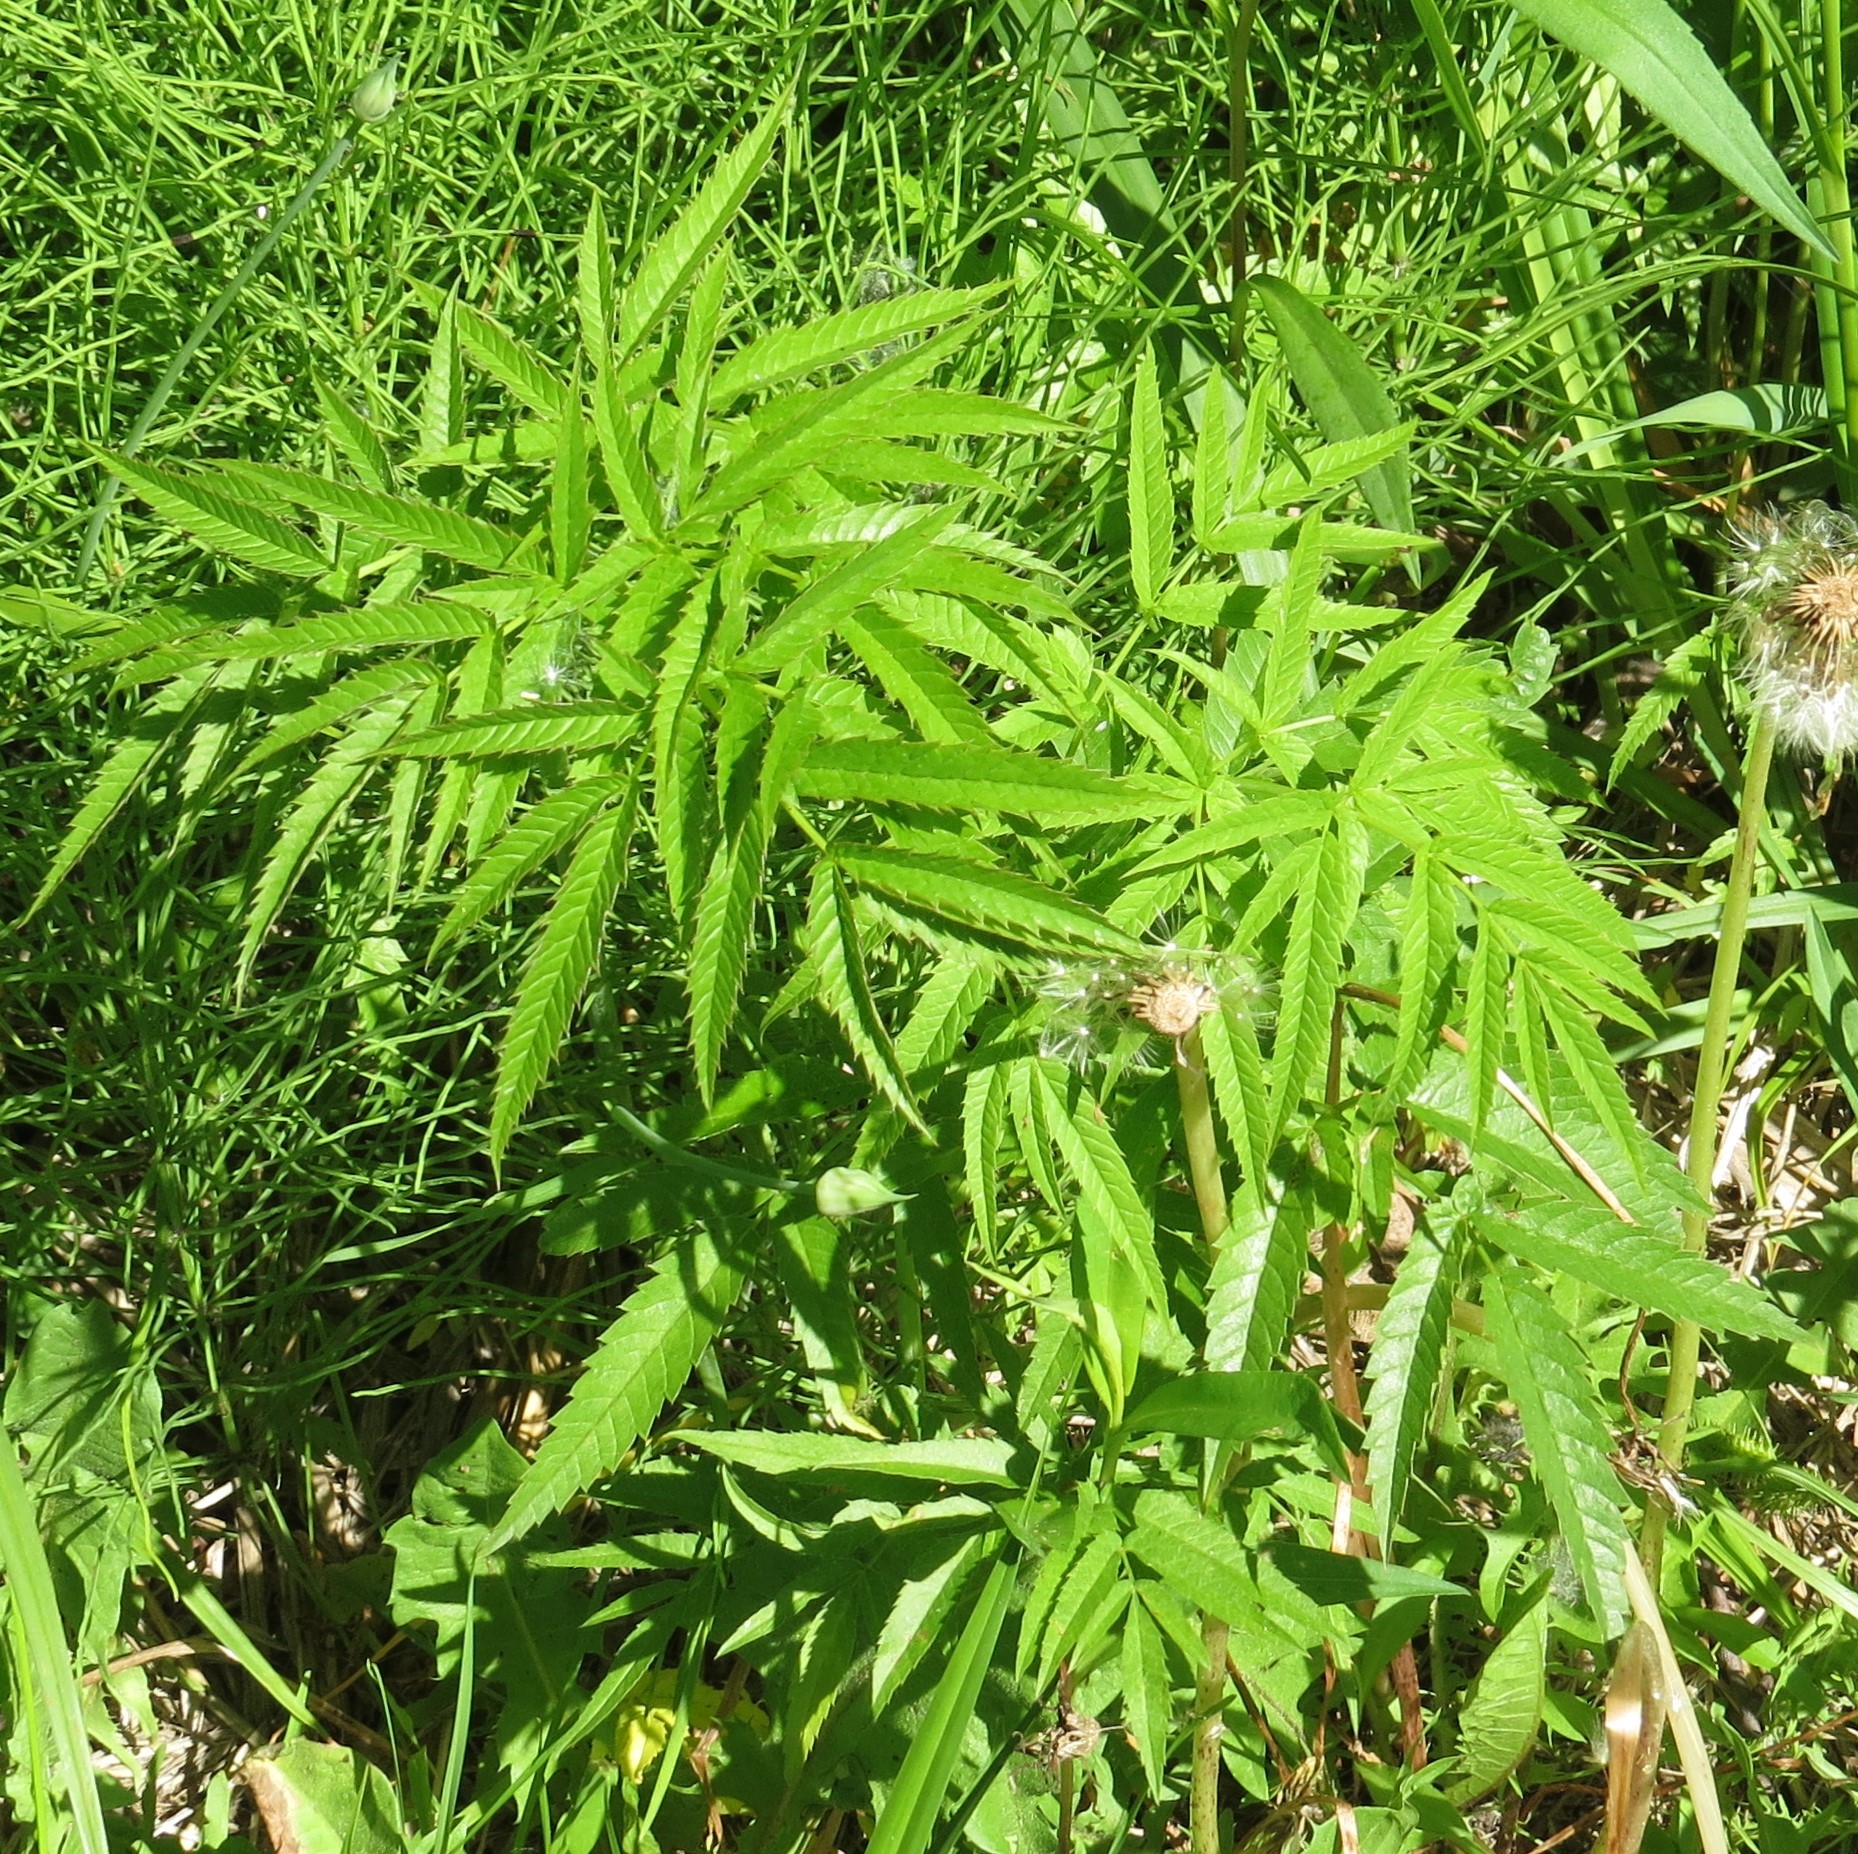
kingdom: Plantae
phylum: Tracheophyta
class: Magnoliopsida
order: Apiales
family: Apiaceae
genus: Cicuta
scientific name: Cicuta maculata
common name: Spotted cowbane
